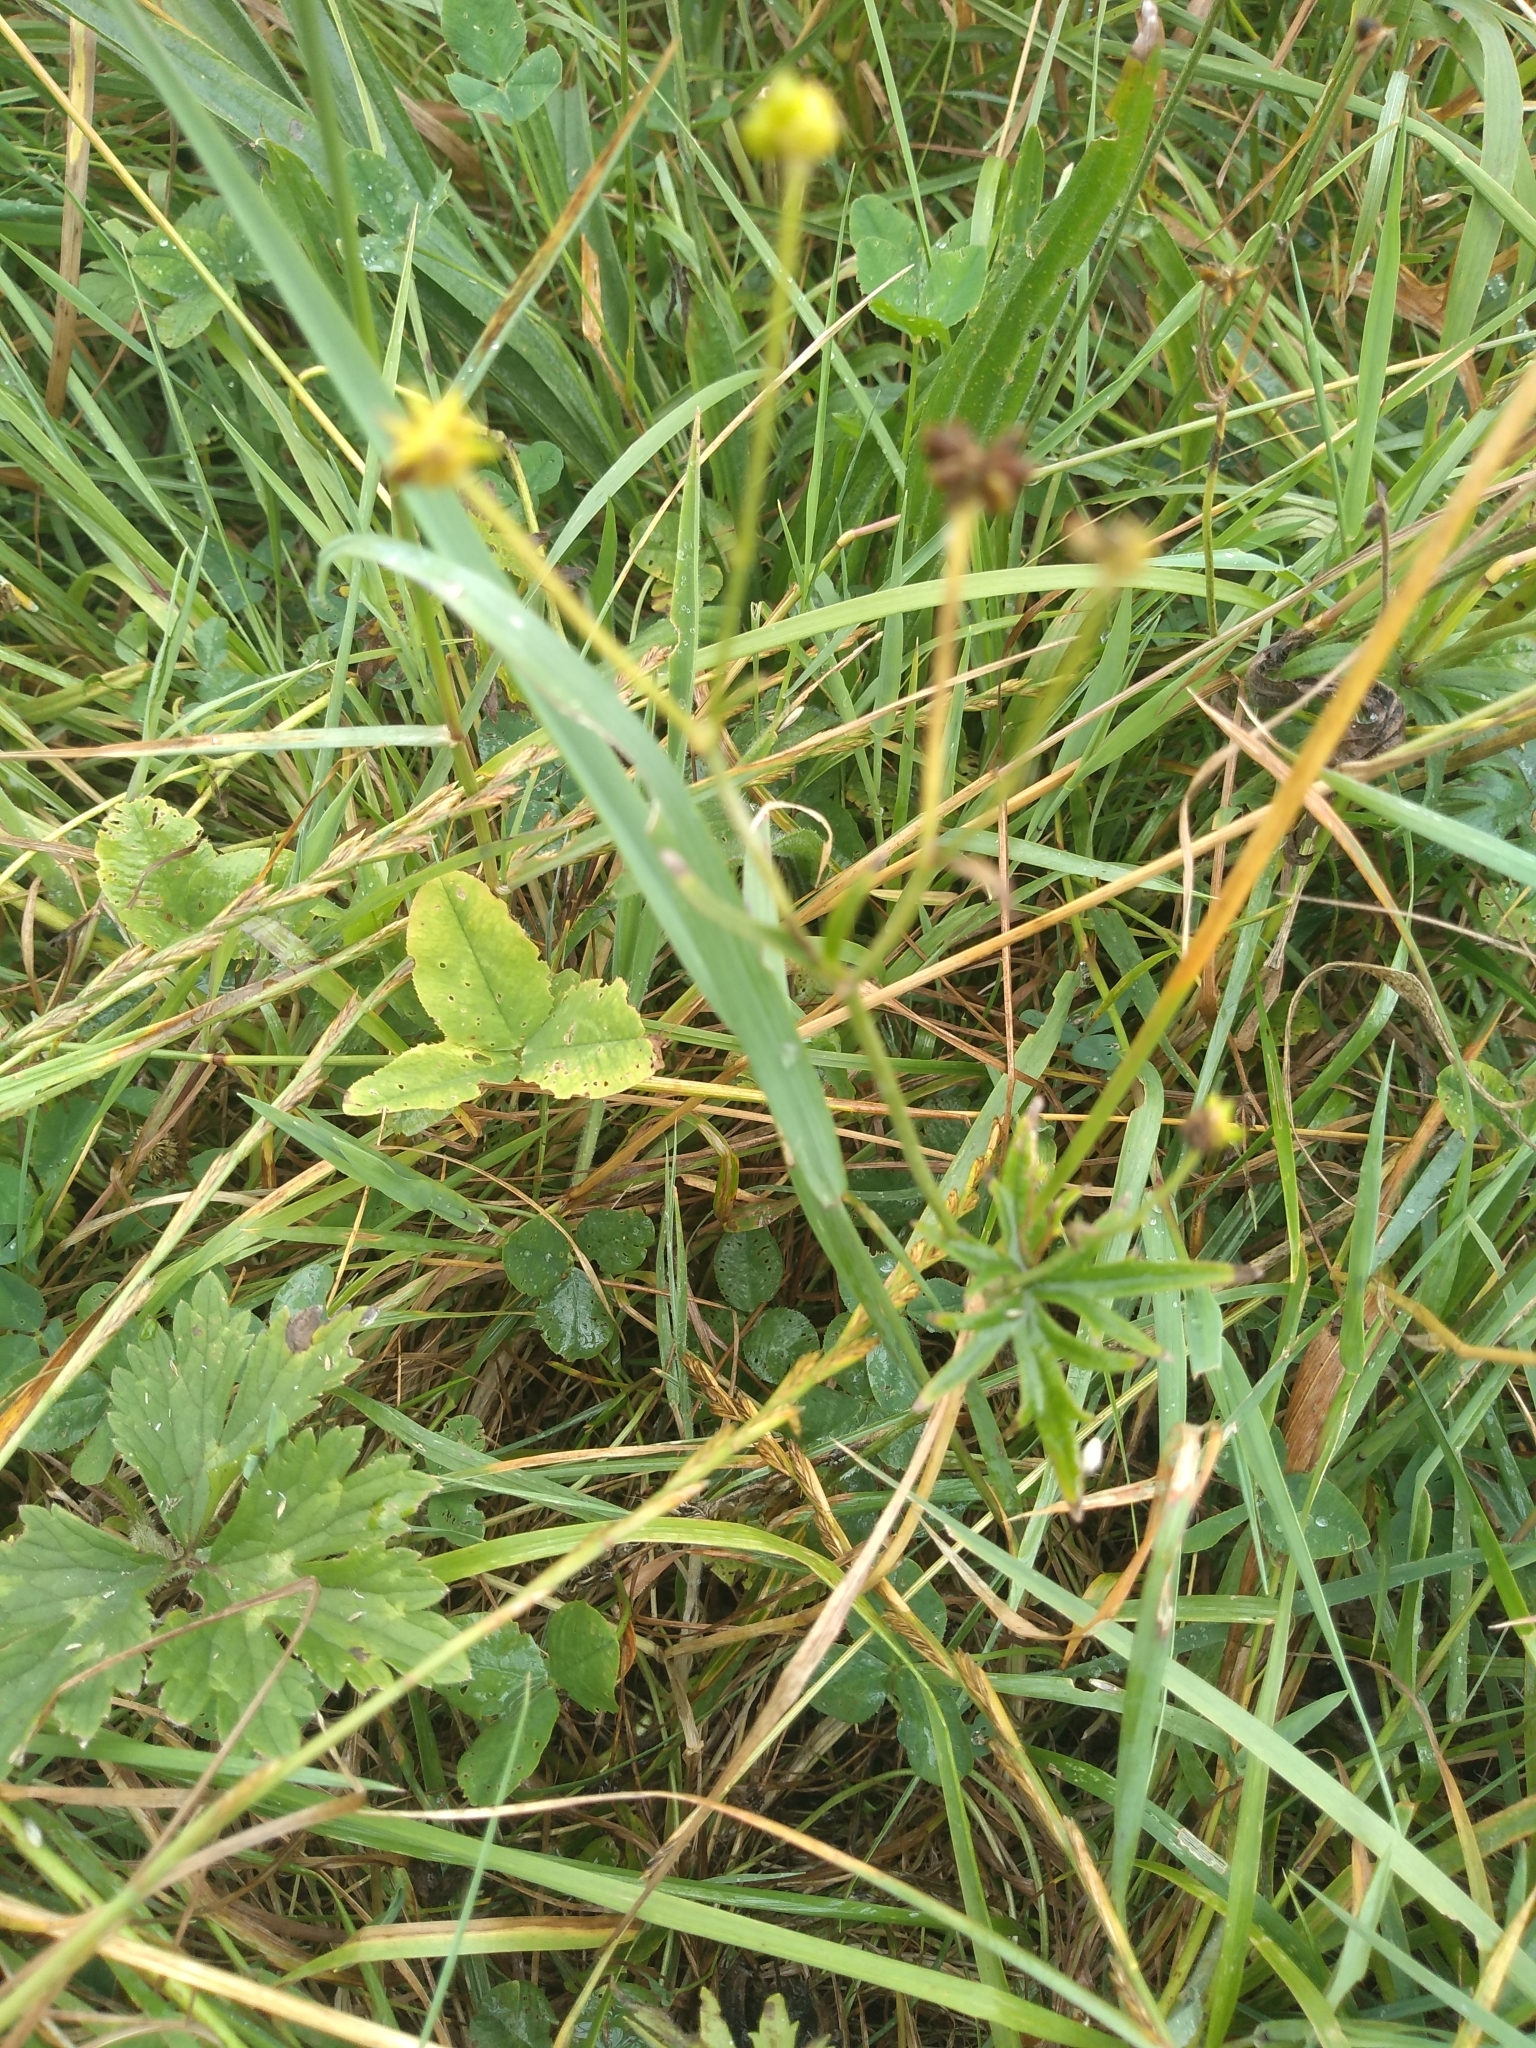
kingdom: Plantae
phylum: Tracheophyta
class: Magnoliopsida
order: Ranunculales
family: Ranunculaceae
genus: Ranunculus
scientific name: Ranunculus acris
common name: Meadow buttercup
